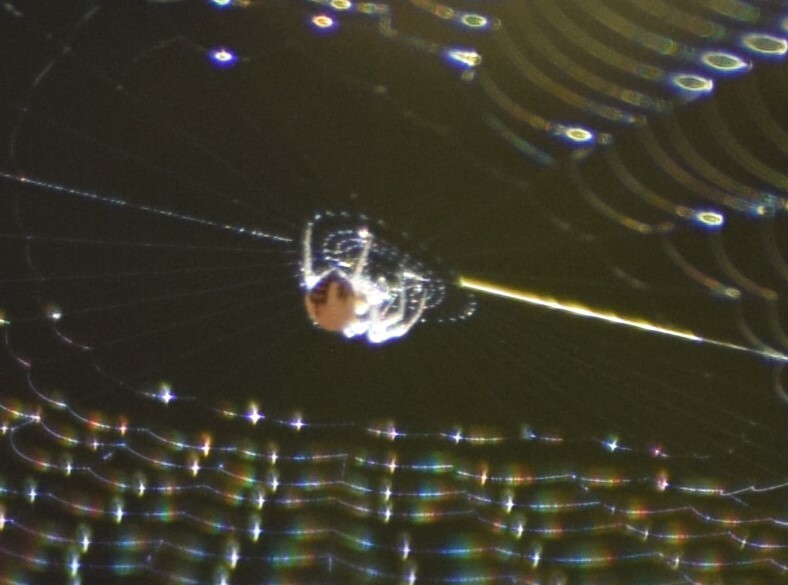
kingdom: Animalia
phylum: Arthropoda
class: Arachnida
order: Araneae
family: Tetragnathidae
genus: Leucauge
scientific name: Leucauge venusta
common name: Longjawed orb weavers
